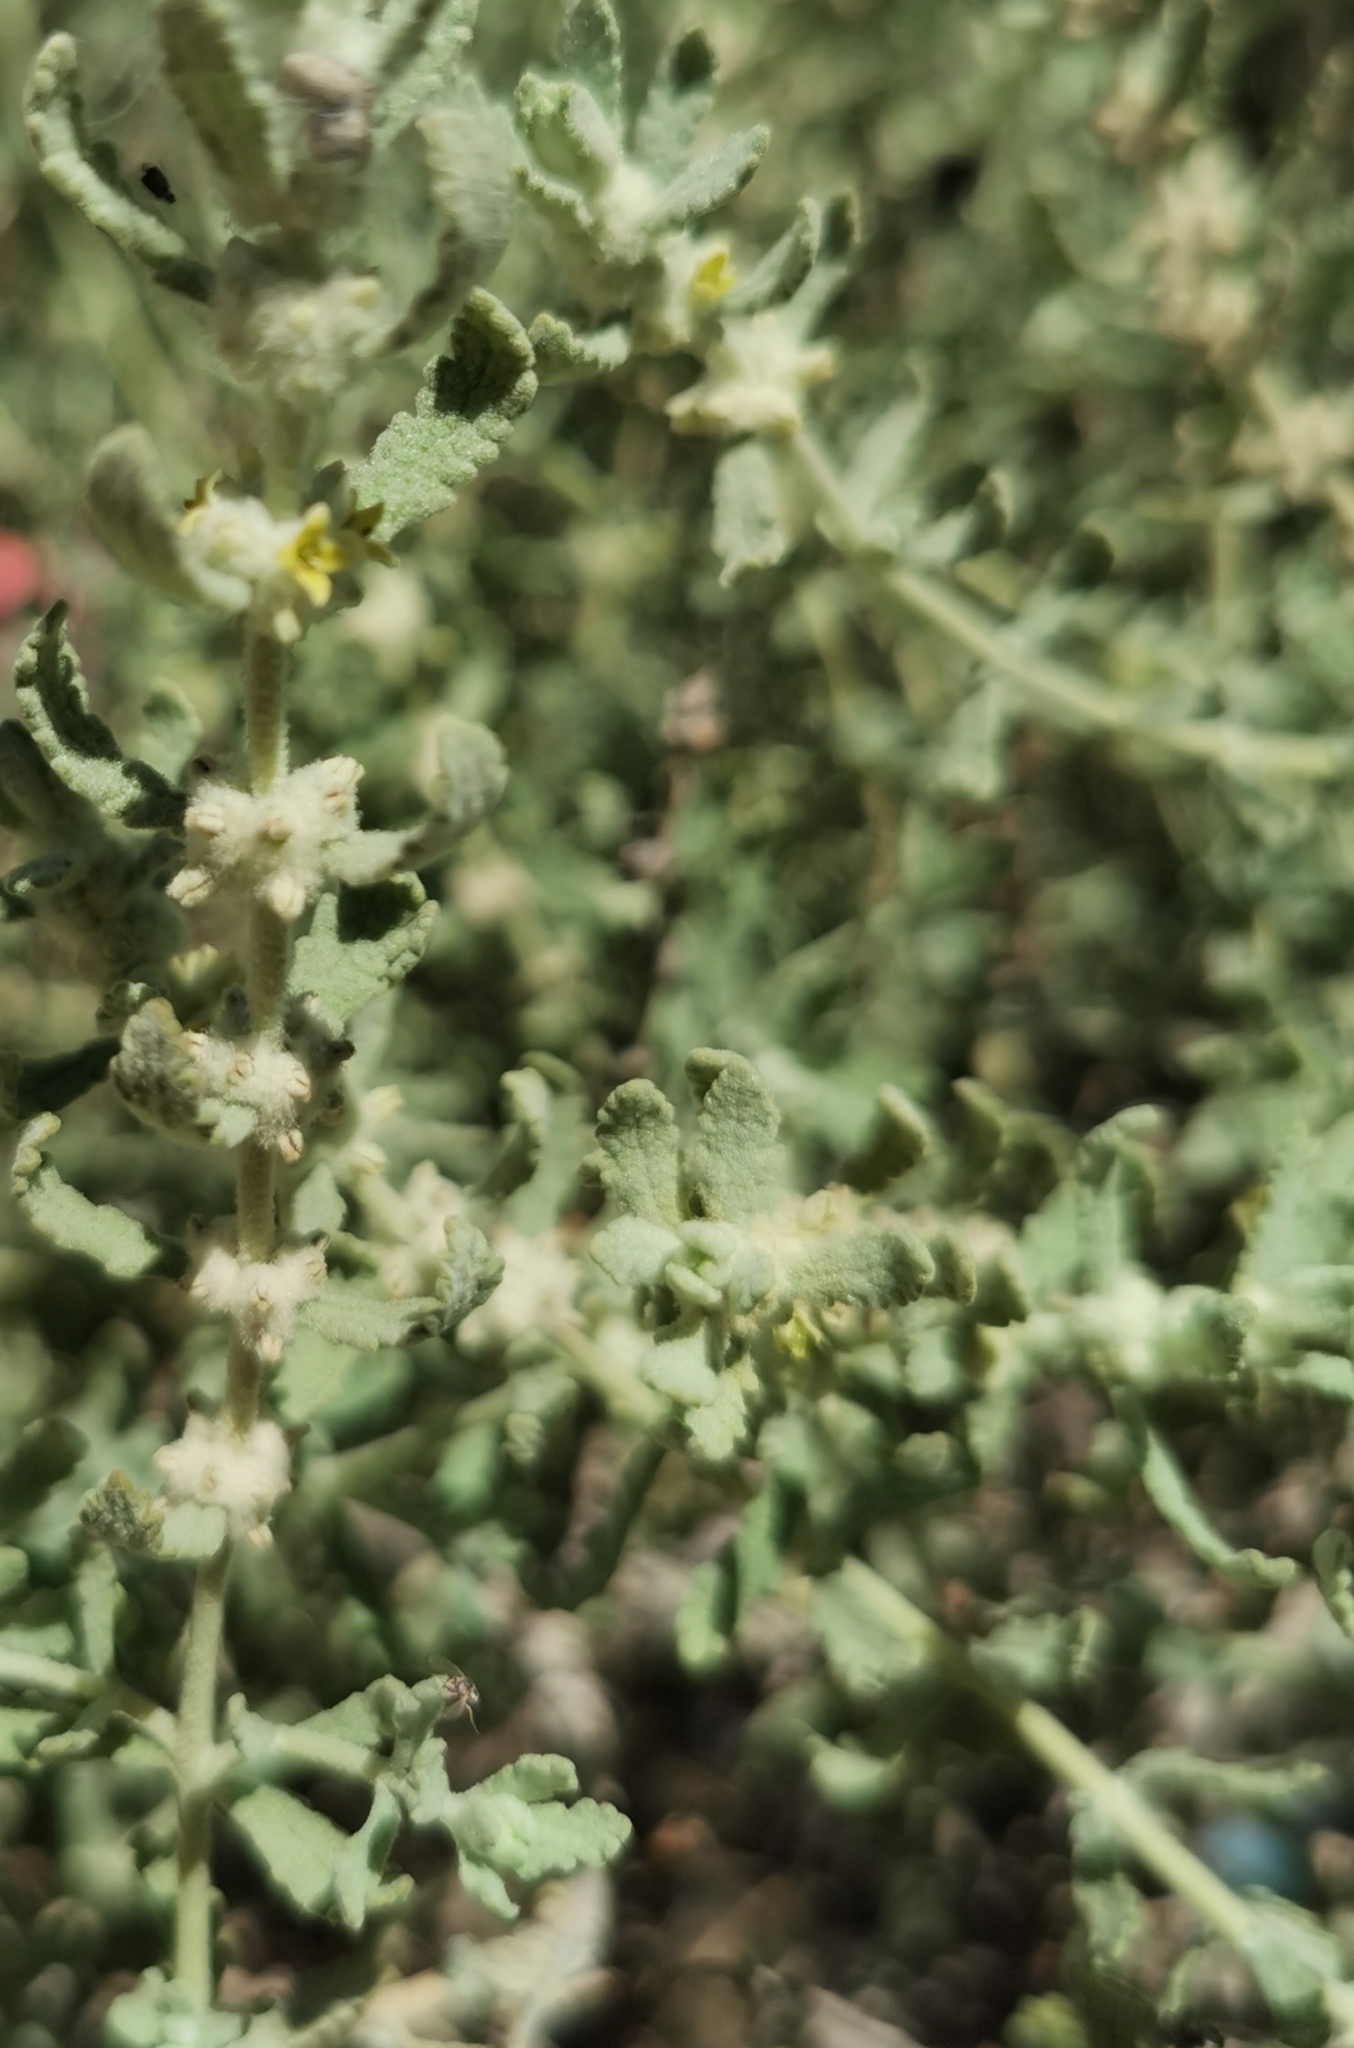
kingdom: Plantae
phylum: Tracheophyta
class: Magnoliopsida
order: Lamiales
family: Scrophulariaceae
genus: Buddleja
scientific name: Buddleja scordioides
